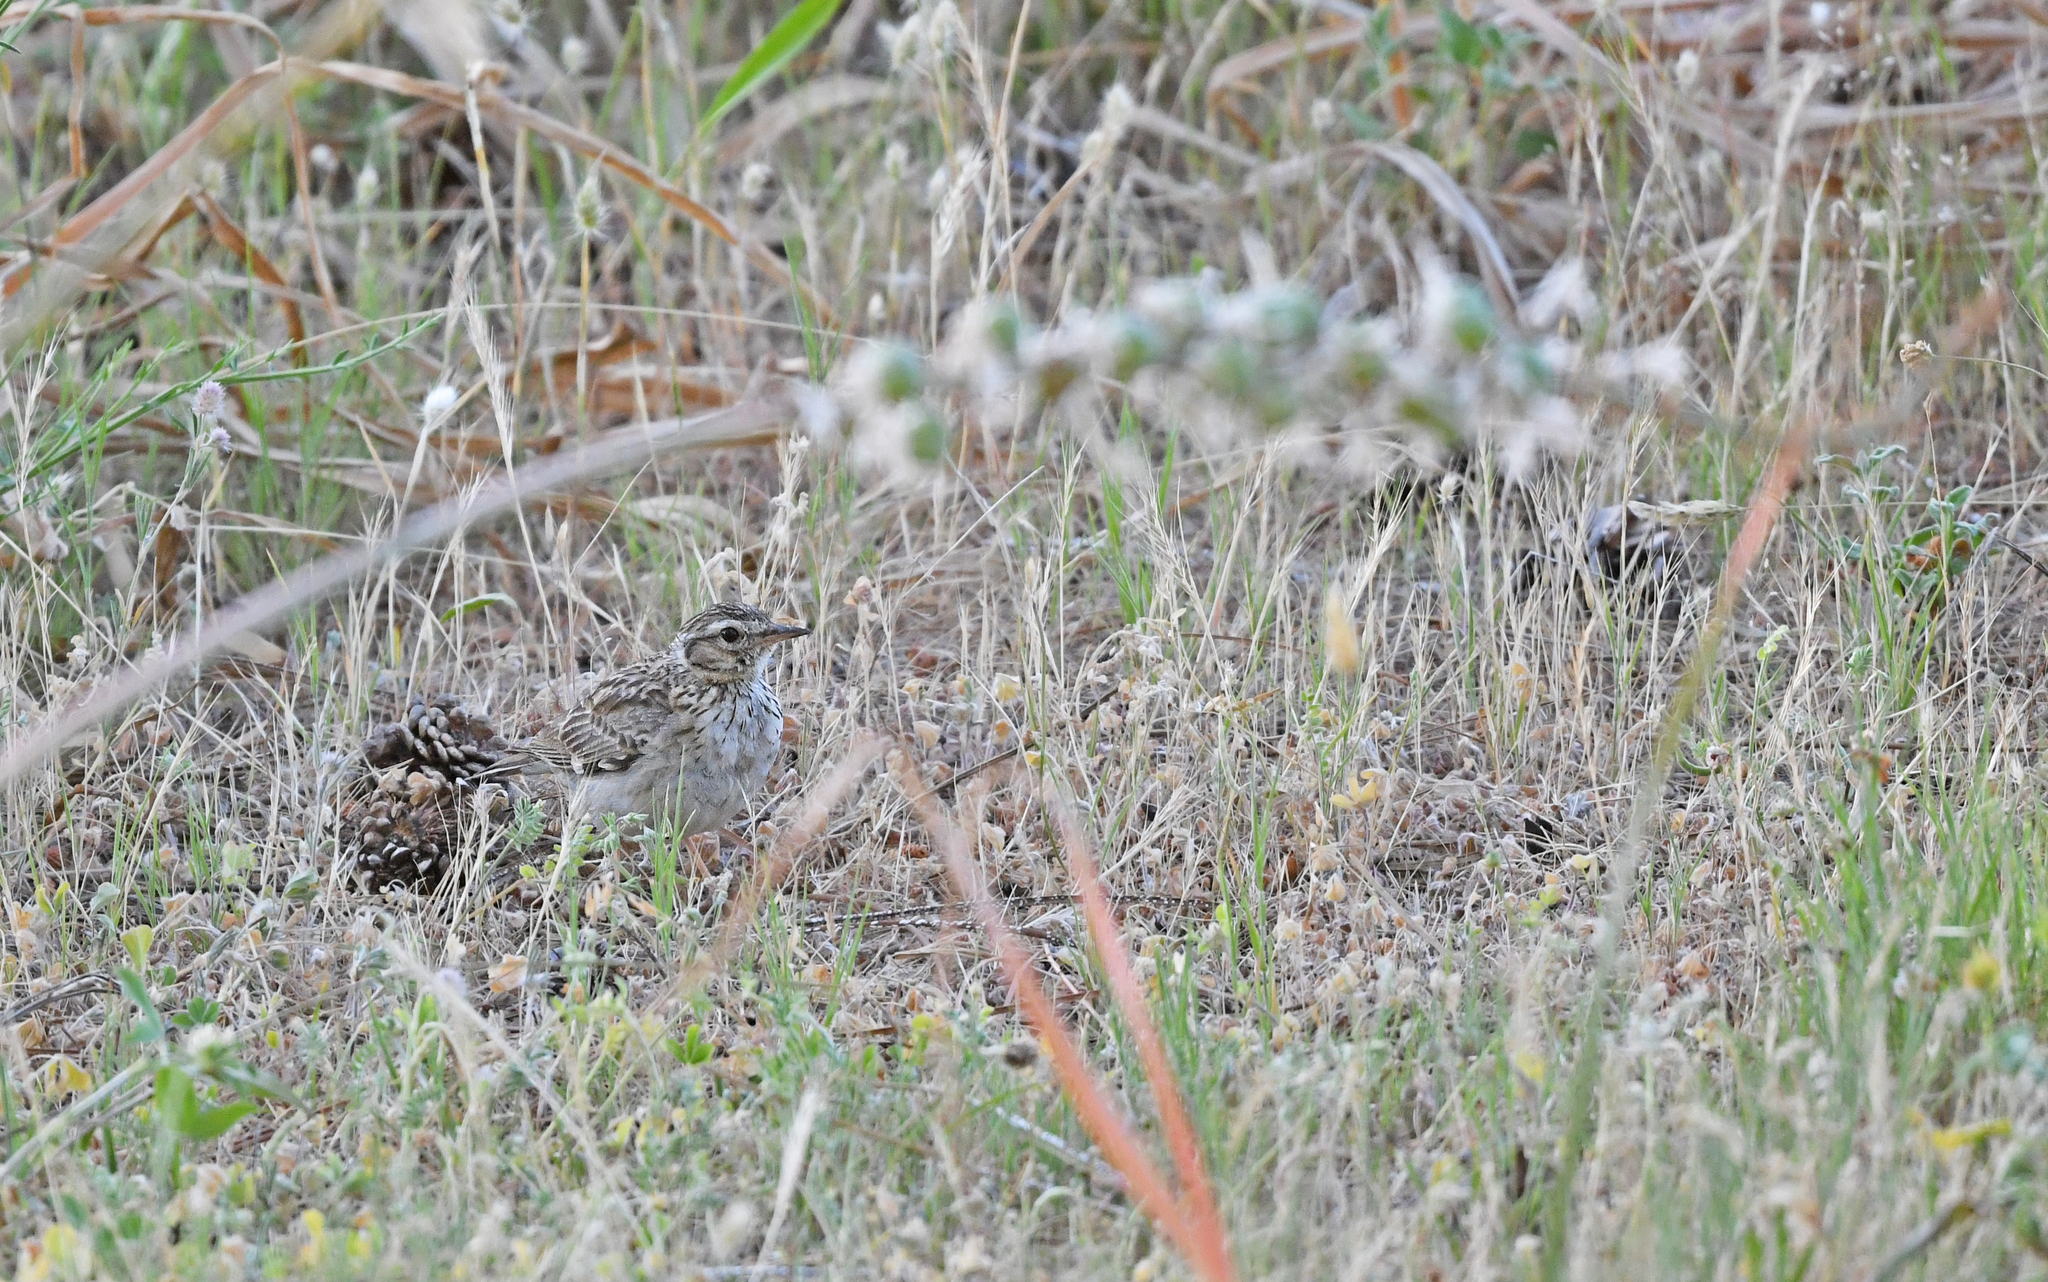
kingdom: Animalia
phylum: Chordata
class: Aves
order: Passeriformes
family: Alaudidae
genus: Lullula
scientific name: Lullula arborea
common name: Woodlark
